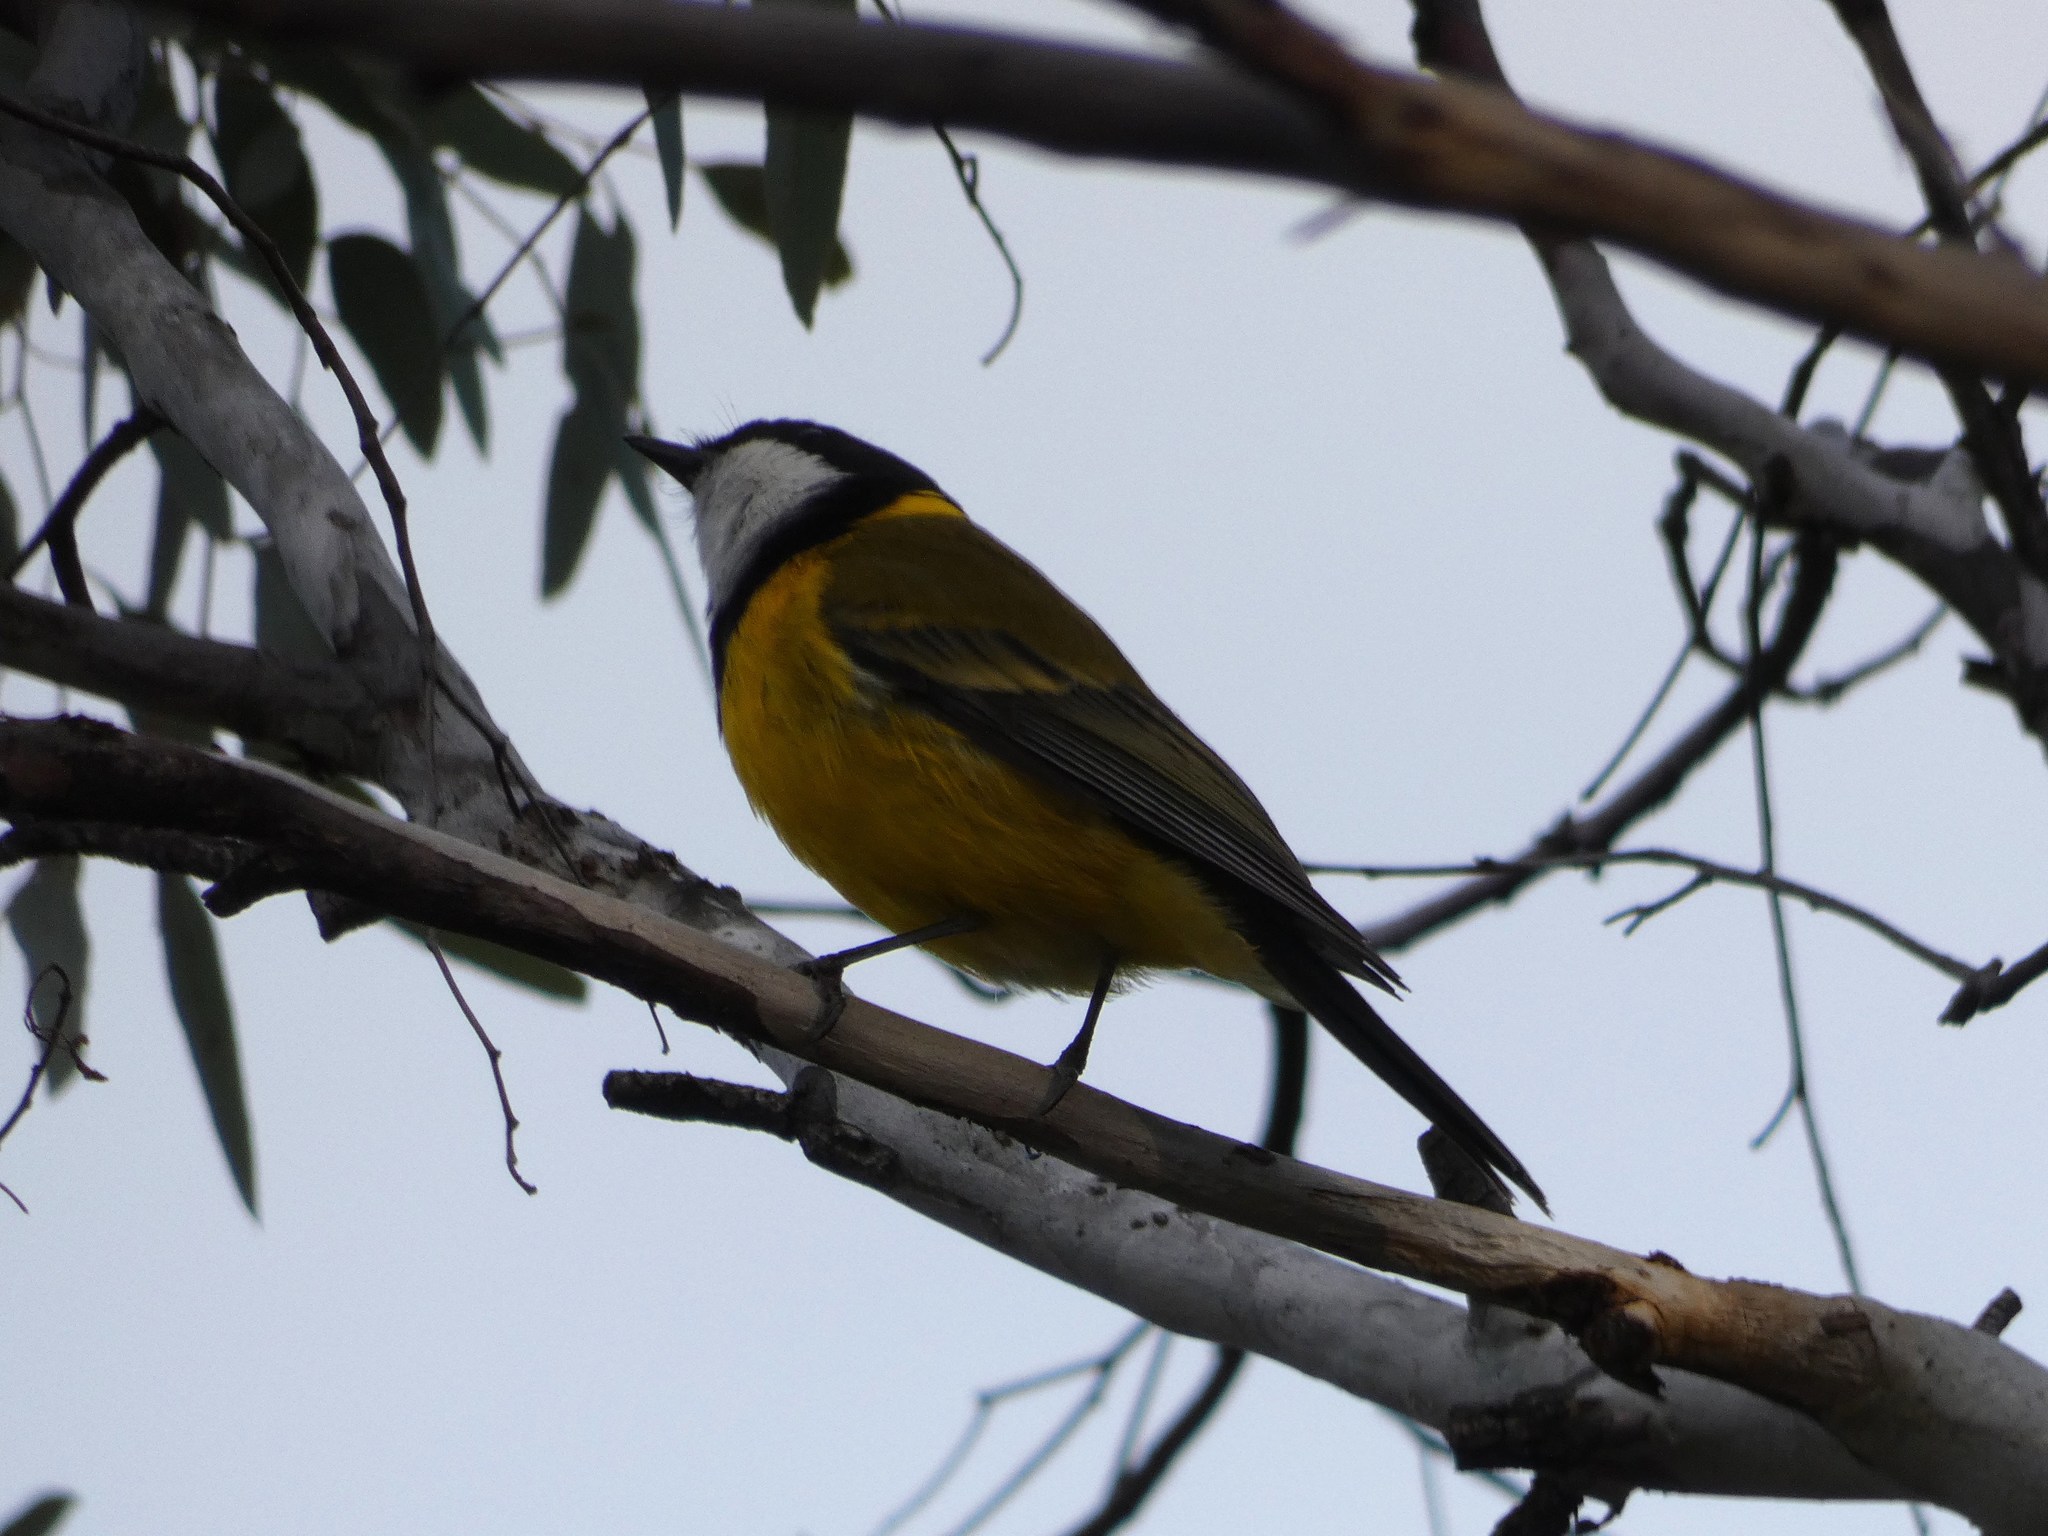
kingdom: Animalia
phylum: Chordata
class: Aves
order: Passeriformes
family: Pachycephalidae
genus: Pachycephala
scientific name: Pachycephala pectoralis
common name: Australian golden whistler
